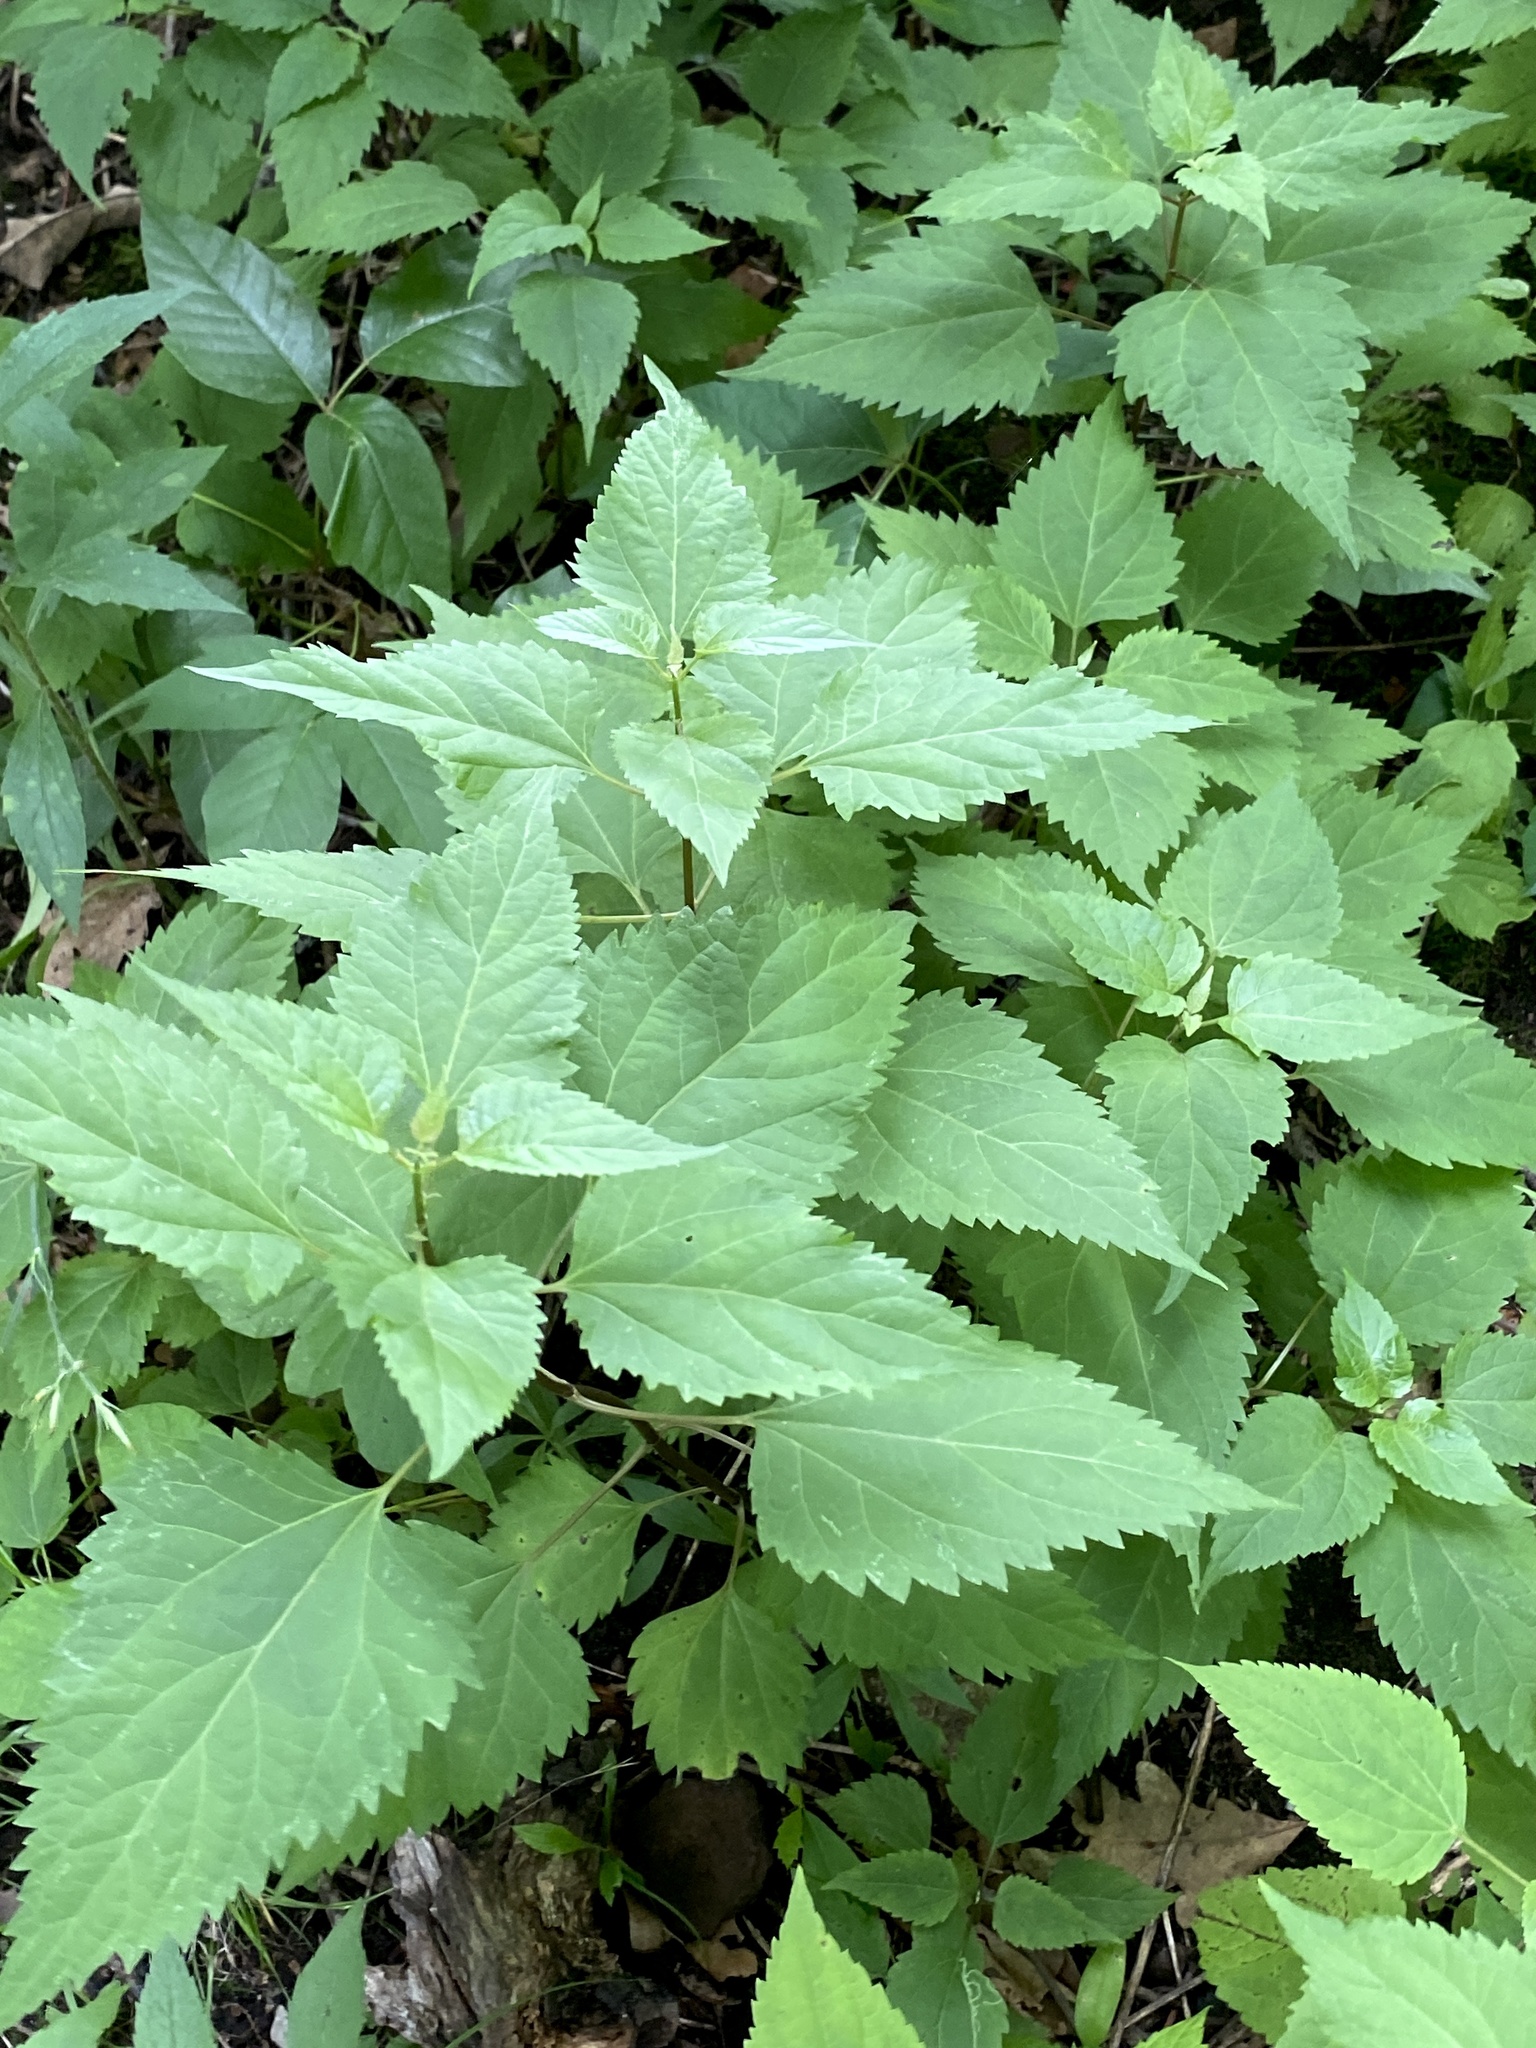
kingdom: Plantae
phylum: Tracheophyta
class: Magnoliopsida
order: Asterales
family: Asteraceae
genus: Ageratina
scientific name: Ageratina altissima
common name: White snakeroot
